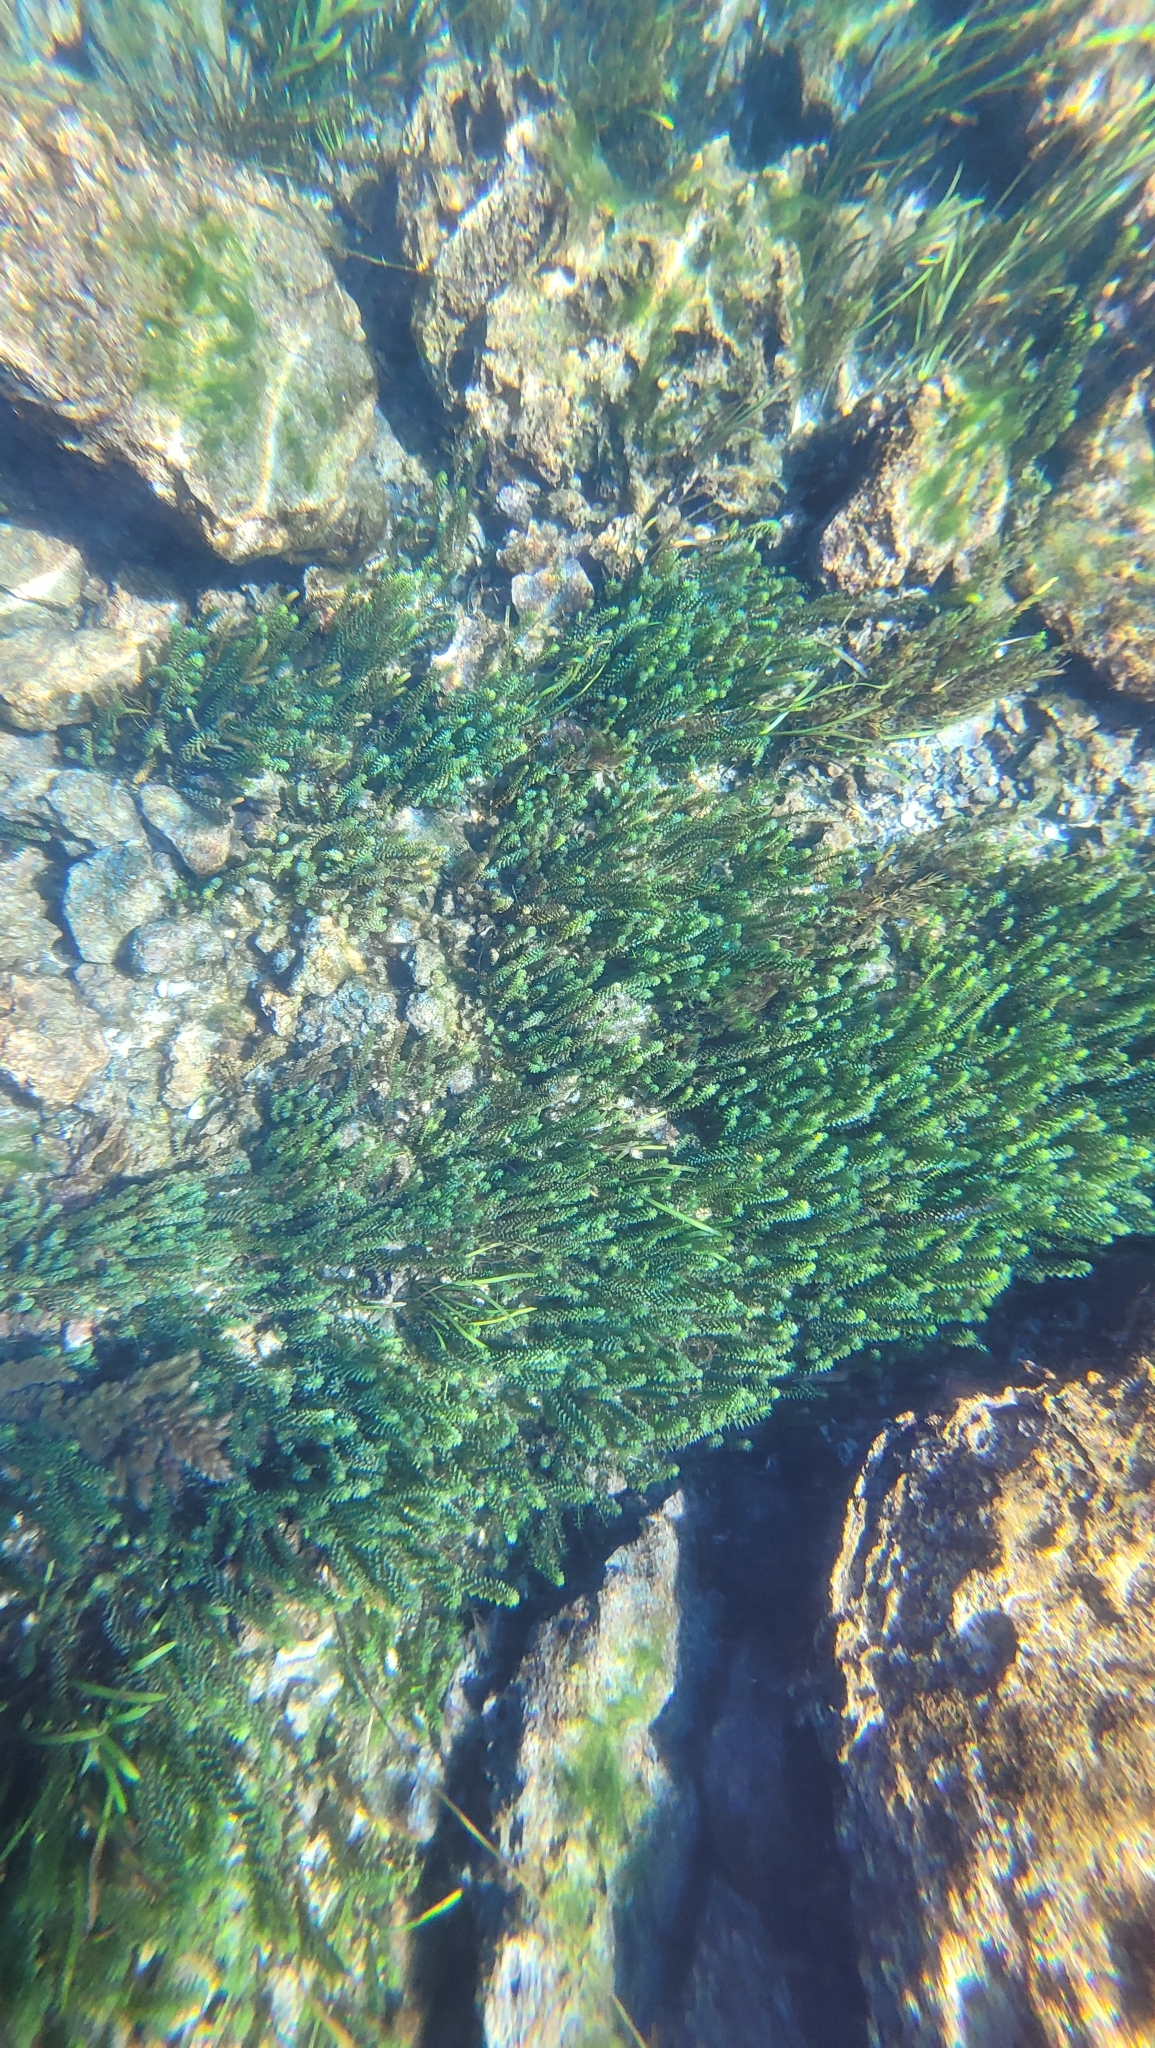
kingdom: Plantae
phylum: Tracheophyta
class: Liliopsida
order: Alismatales
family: Hydrocharitaceae
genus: Hydrilla
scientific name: Hydrilla verticillata
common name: Florida-elodea
